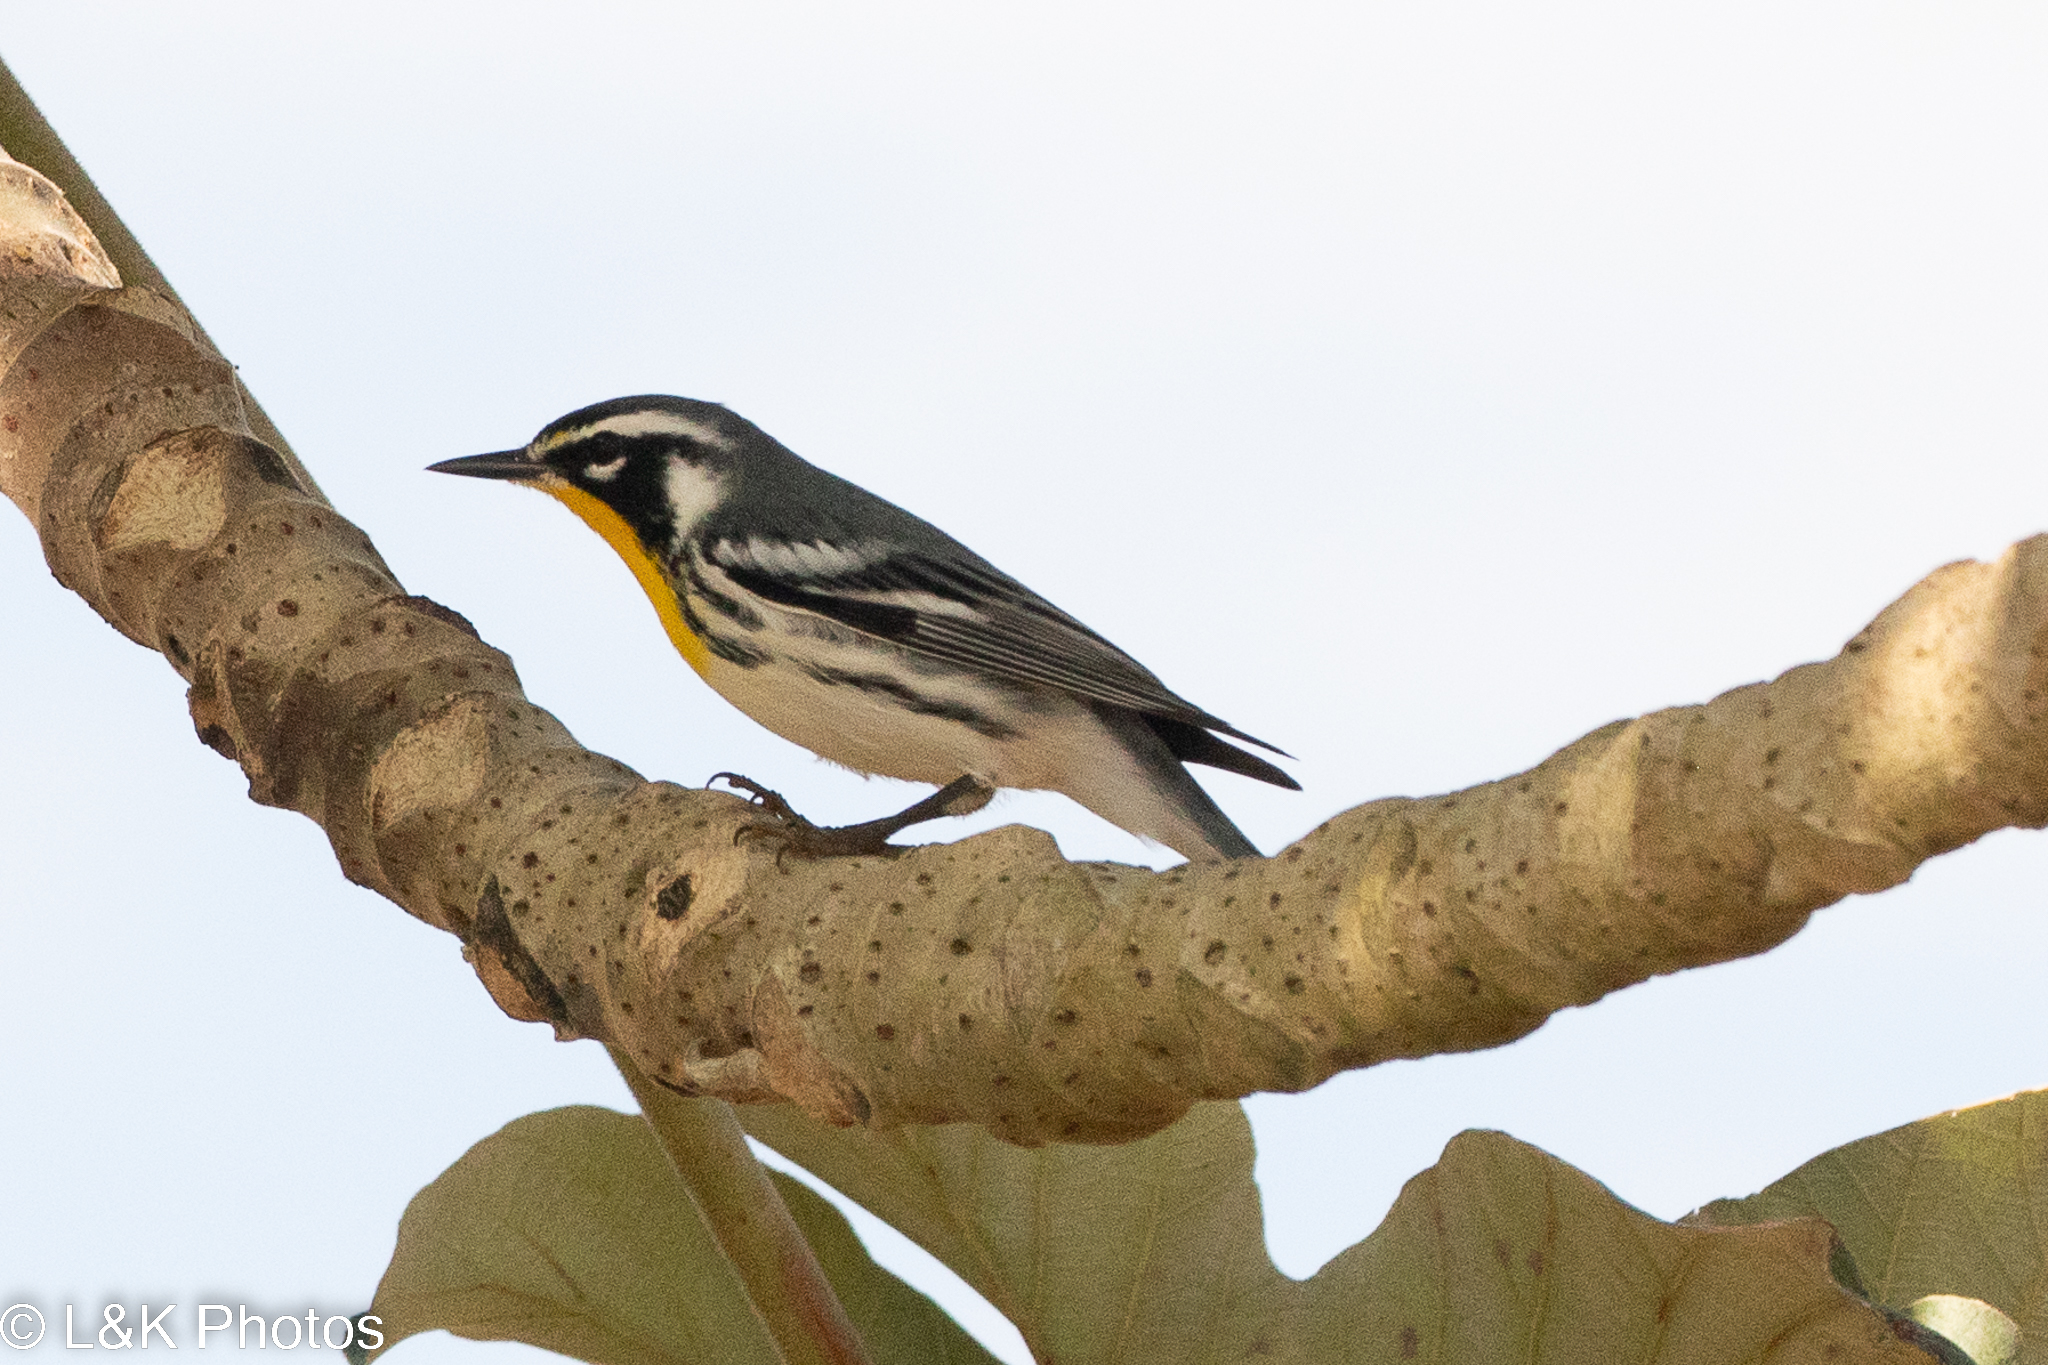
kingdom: Animalia
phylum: Chordata
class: Aves
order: Passeriformes
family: Parulidae
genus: Setophaga
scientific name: Setophaga dominica
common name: Yellow-throated warbler
